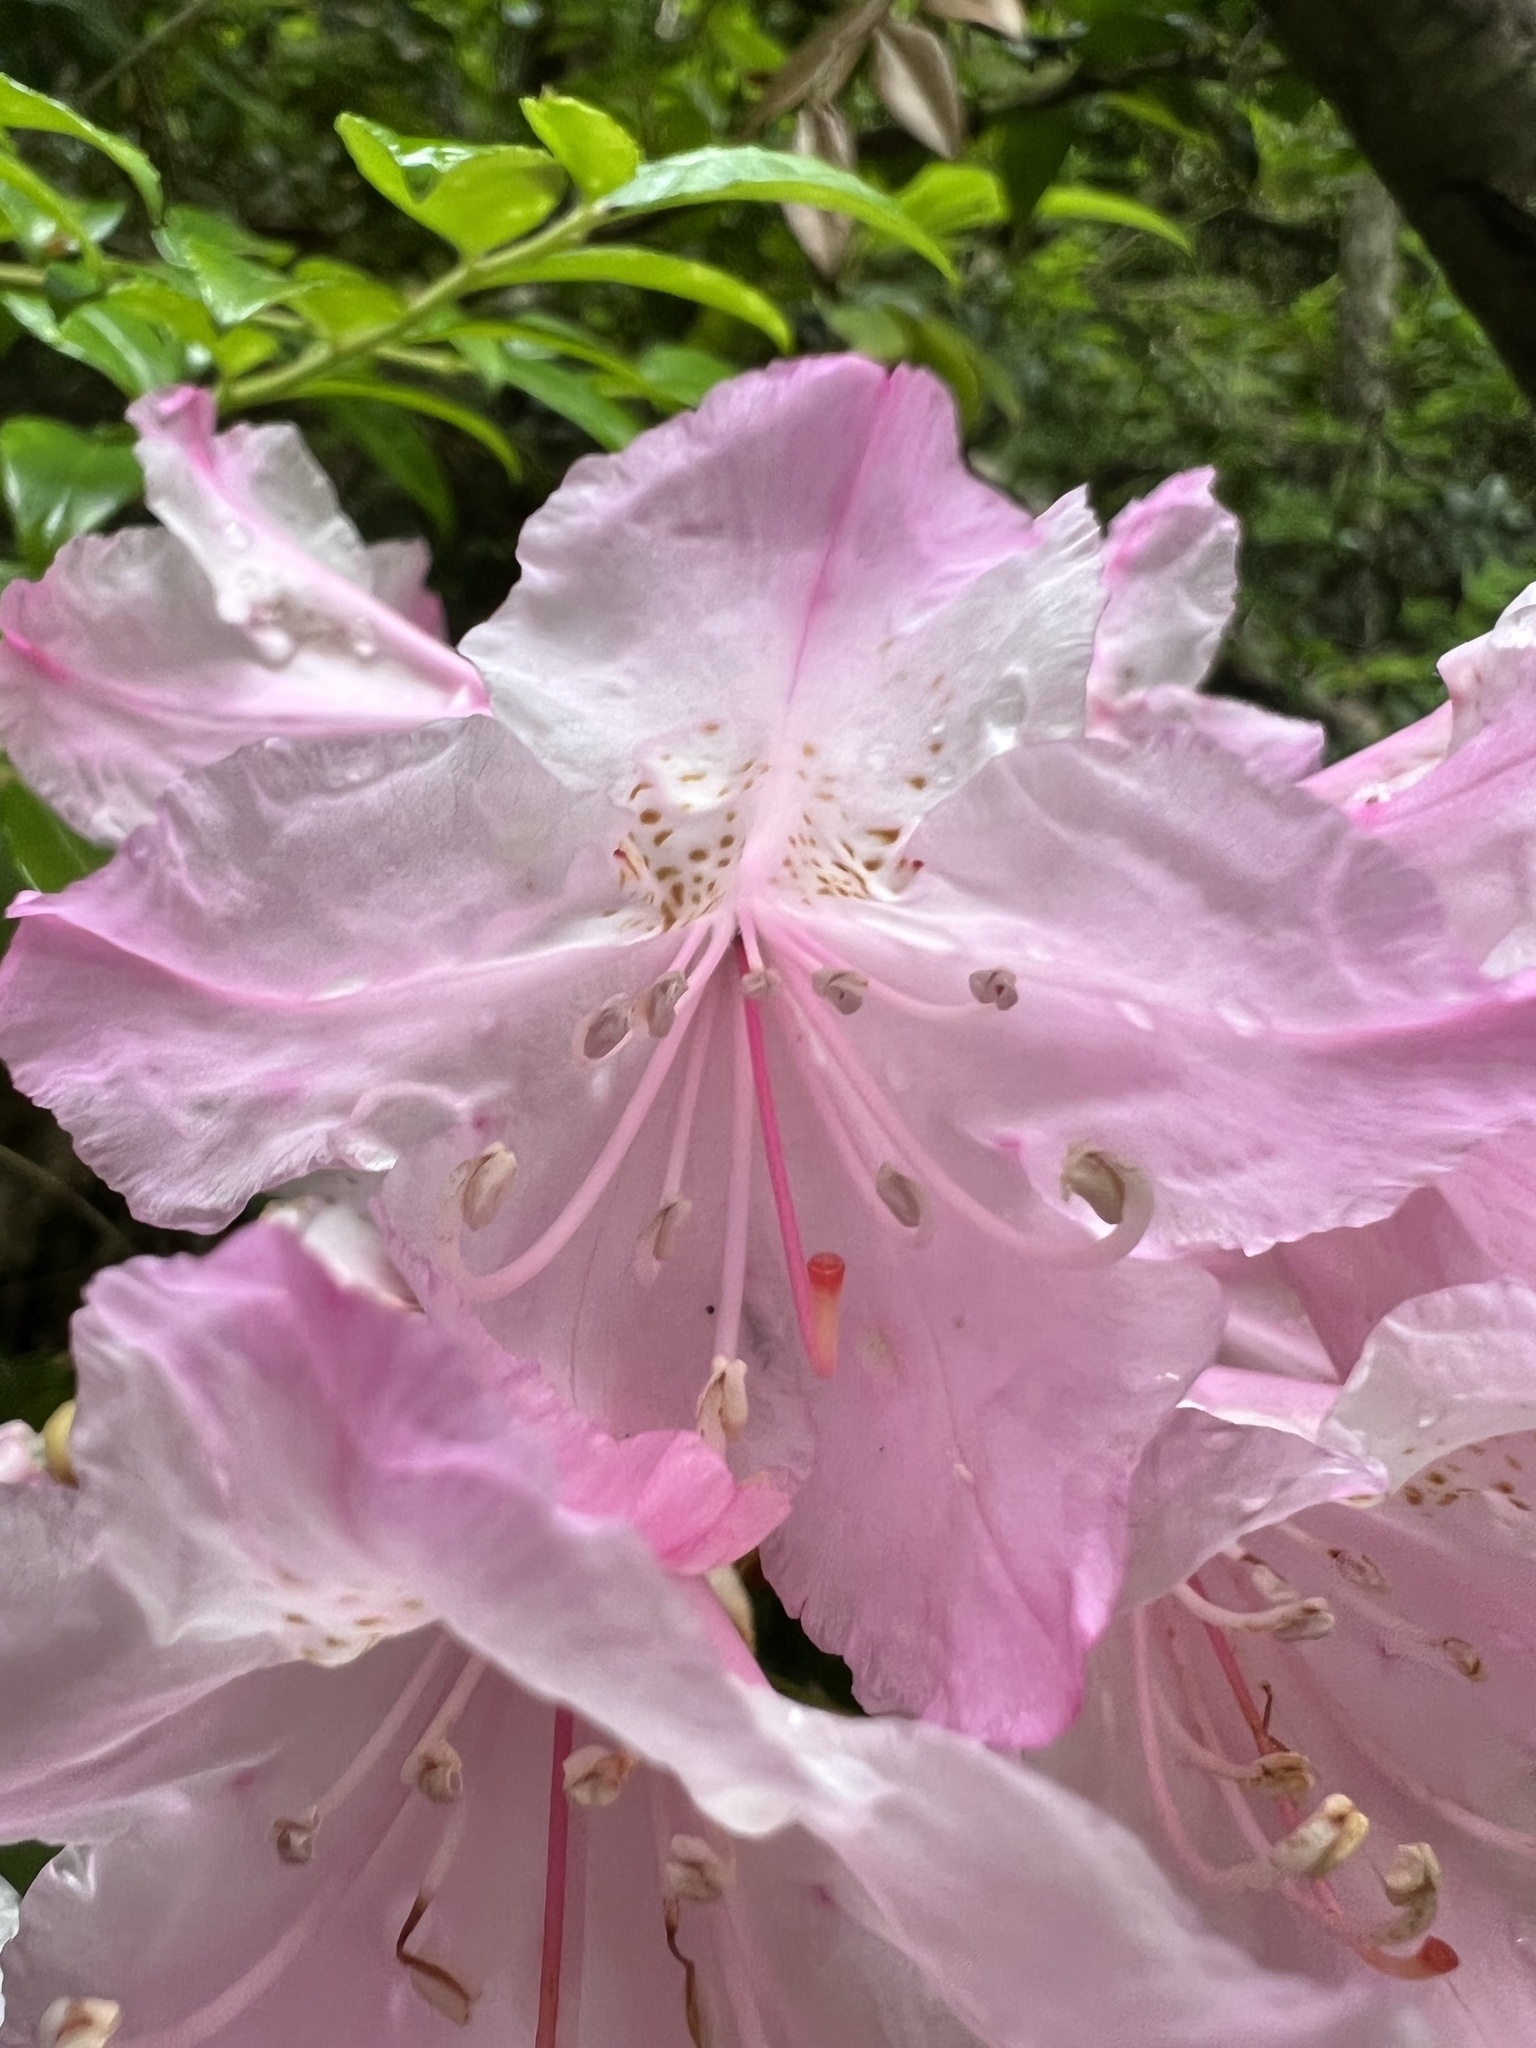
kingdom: Plantae
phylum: Tracheophyta
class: Magnoliopsida
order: Ericales
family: Ericaceae
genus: Rhododendron
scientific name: Rhododendron macrophyllum
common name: California rose bay
